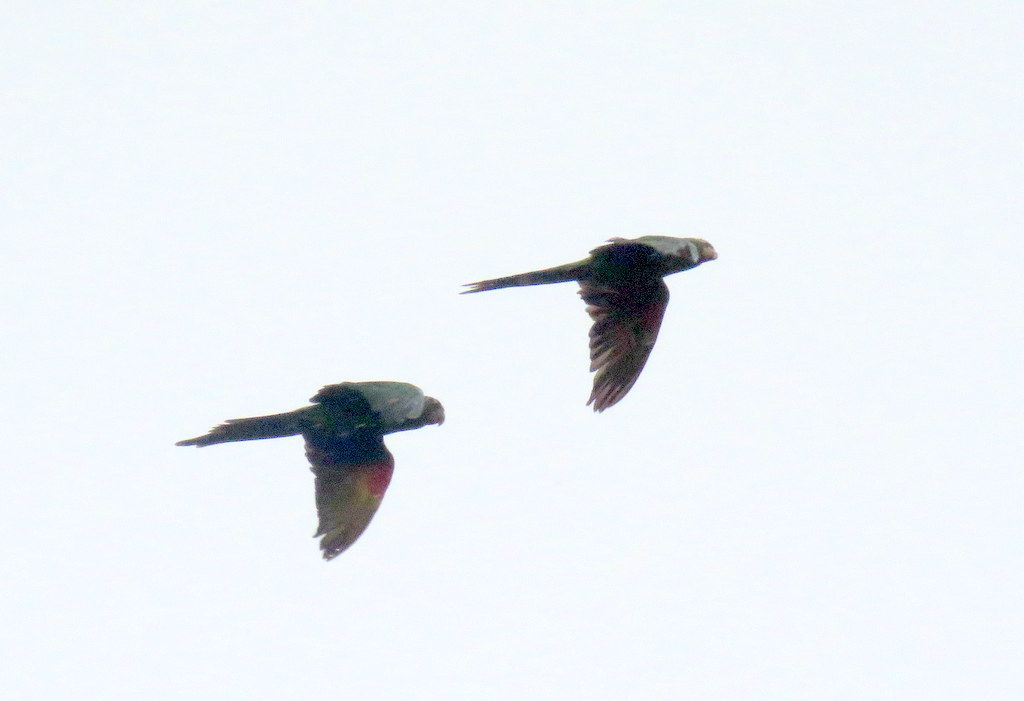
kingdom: Animalia
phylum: Chordata
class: Aves
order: Psittaciformes
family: Psittacidae
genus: Aratinga
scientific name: Aratinga leucophthalma
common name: White-eyed parakeet
